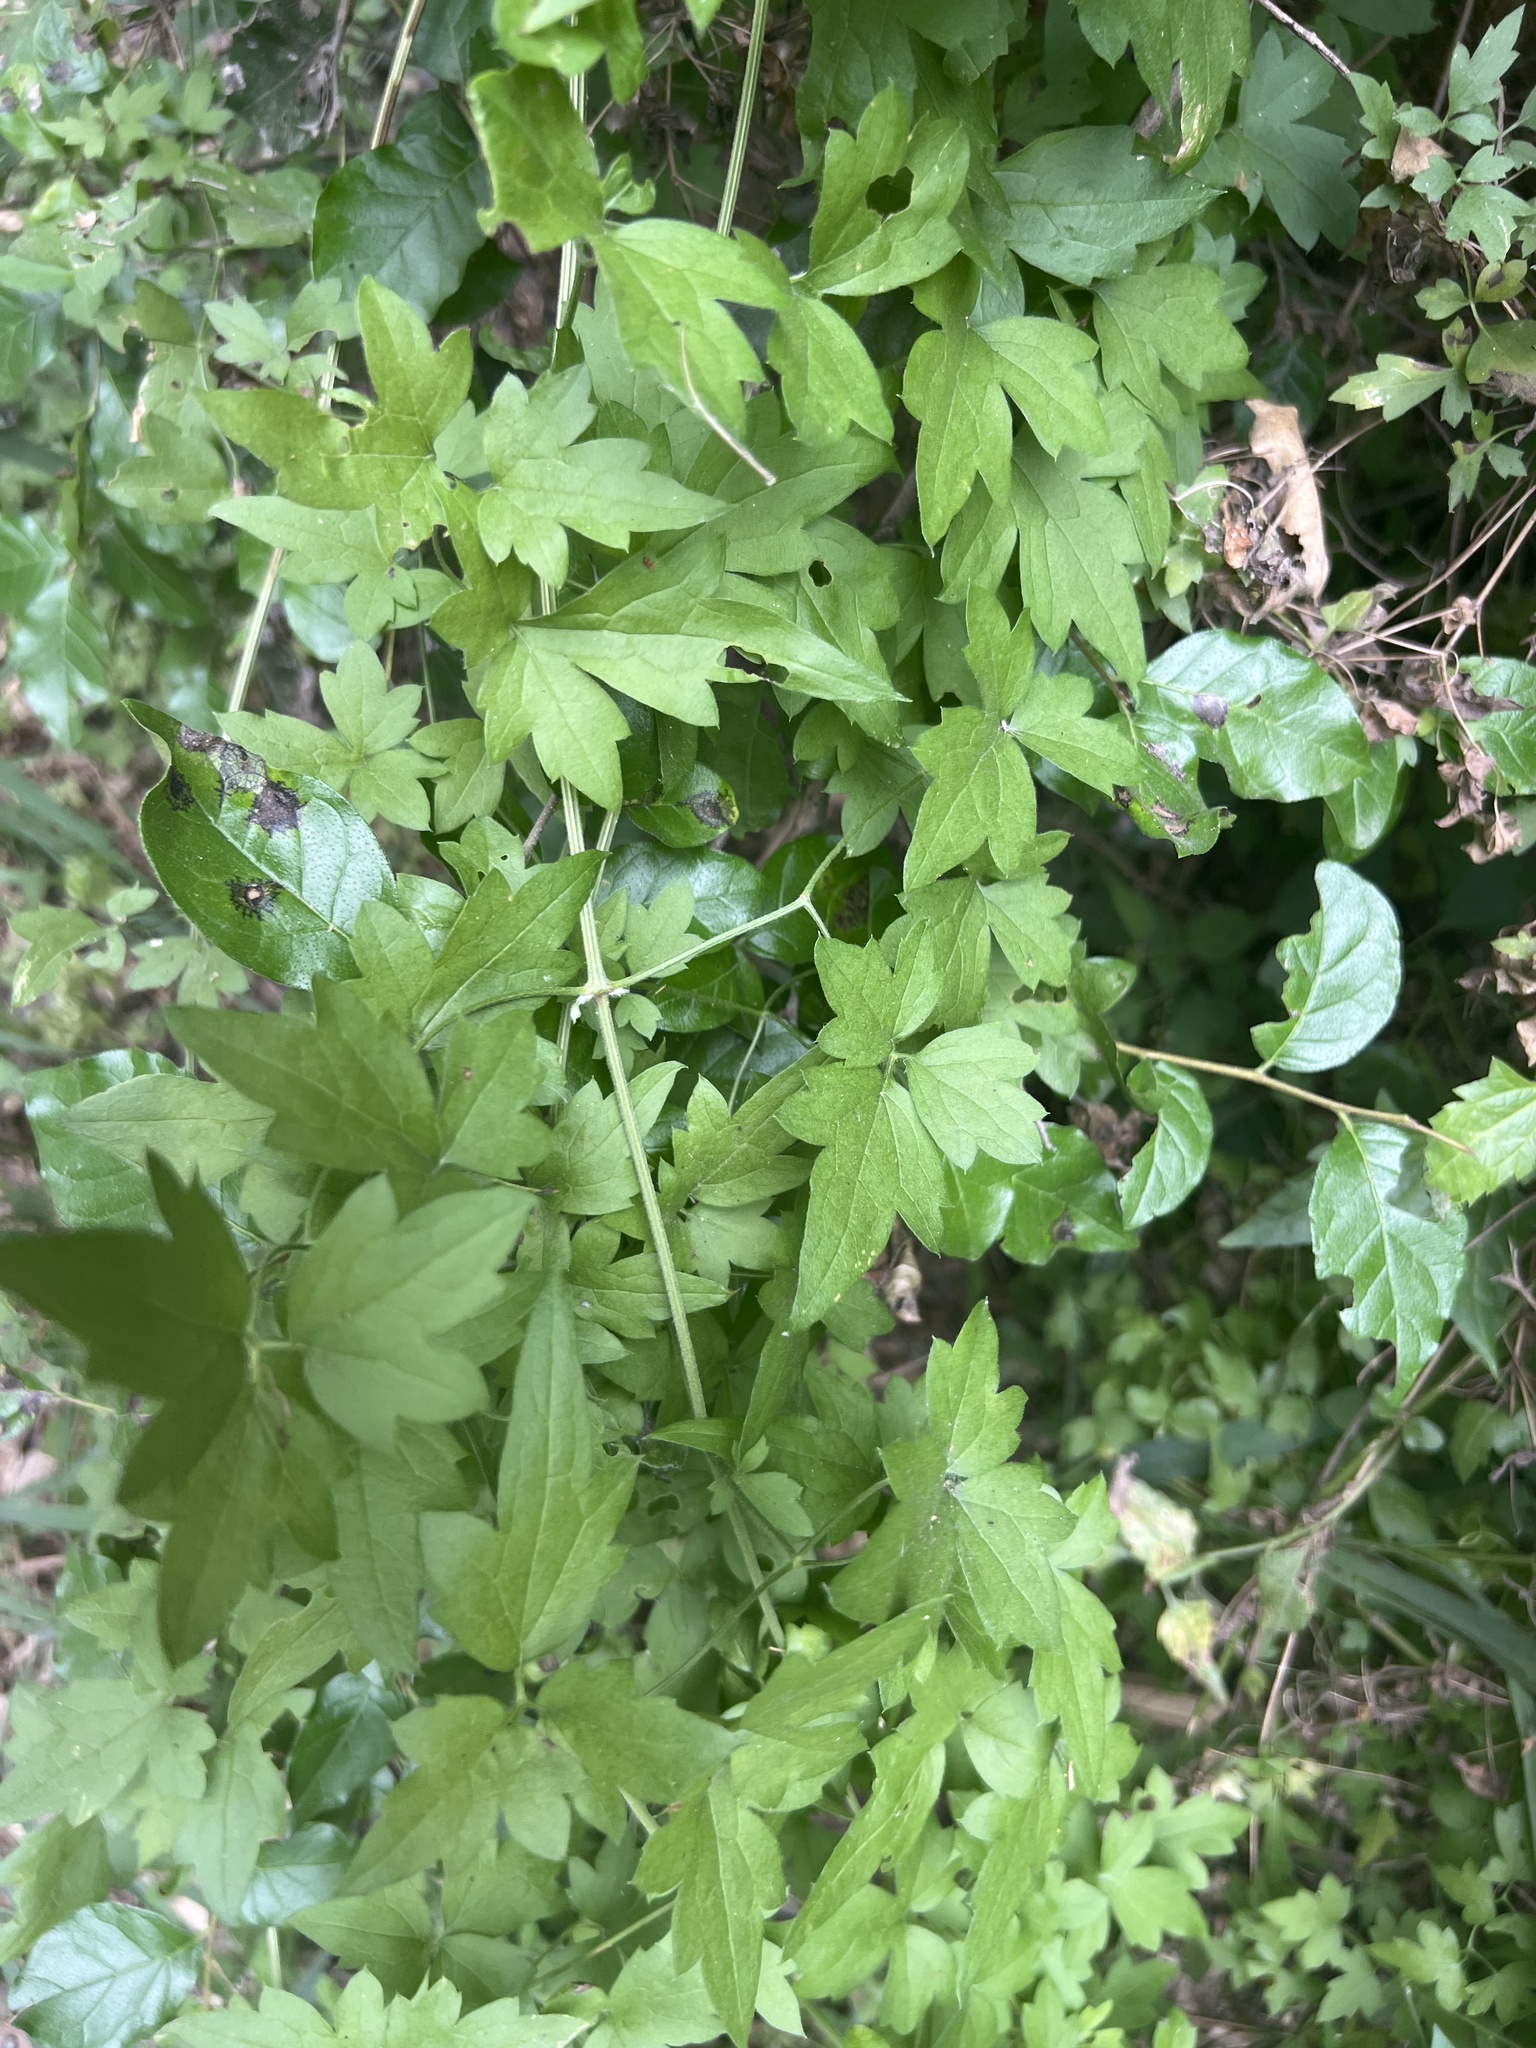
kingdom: Plantae
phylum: Tracheophyta
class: Magnoliopsida
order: Ranunculales
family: Ranunculaceae
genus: Clematis
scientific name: Clematis drummondii
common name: Texas virgin's bower
